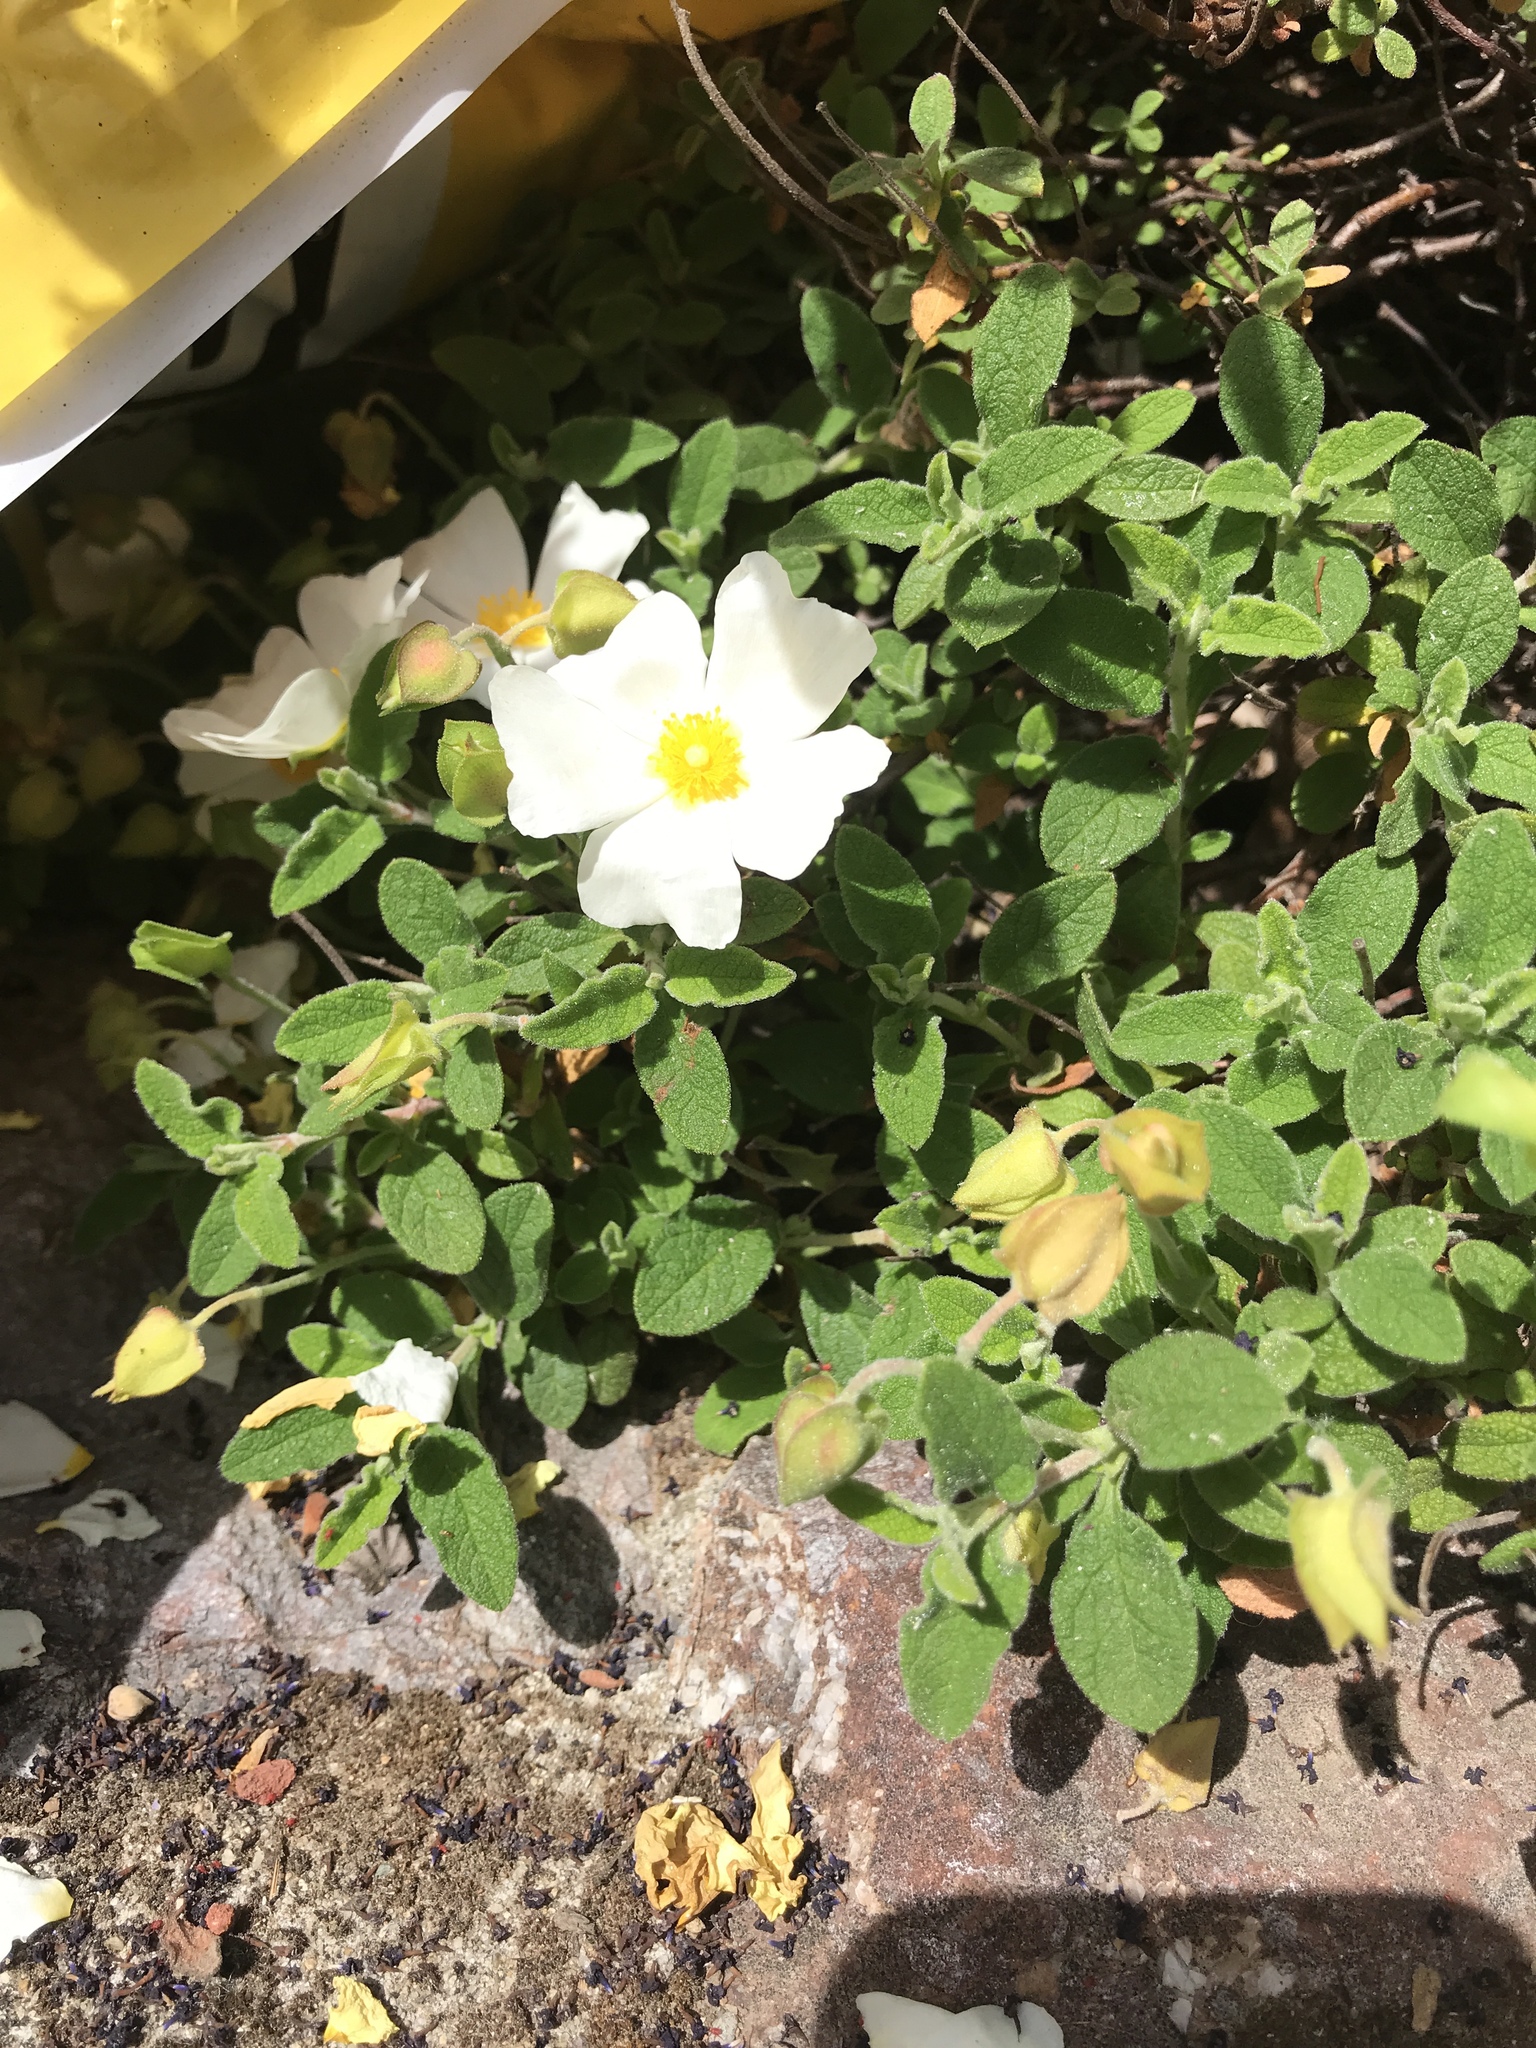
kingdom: Plantae
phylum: Tracheophyta
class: Magnoliopsida
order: Malvales
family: Cistaceae
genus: Cistus
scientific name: Cistus salviifolius
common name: Salvia cistus
